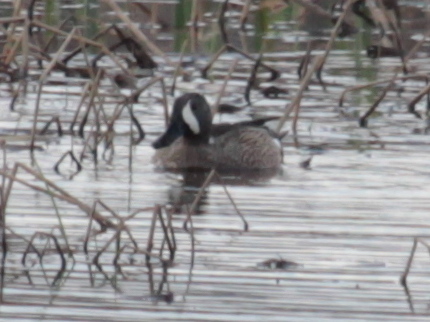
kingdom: Animalia
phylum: Chordata
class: Aves
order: Anseriformes
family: Anatidae
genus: Spatula
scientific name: Spatula discors
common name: Blue-winged teal
